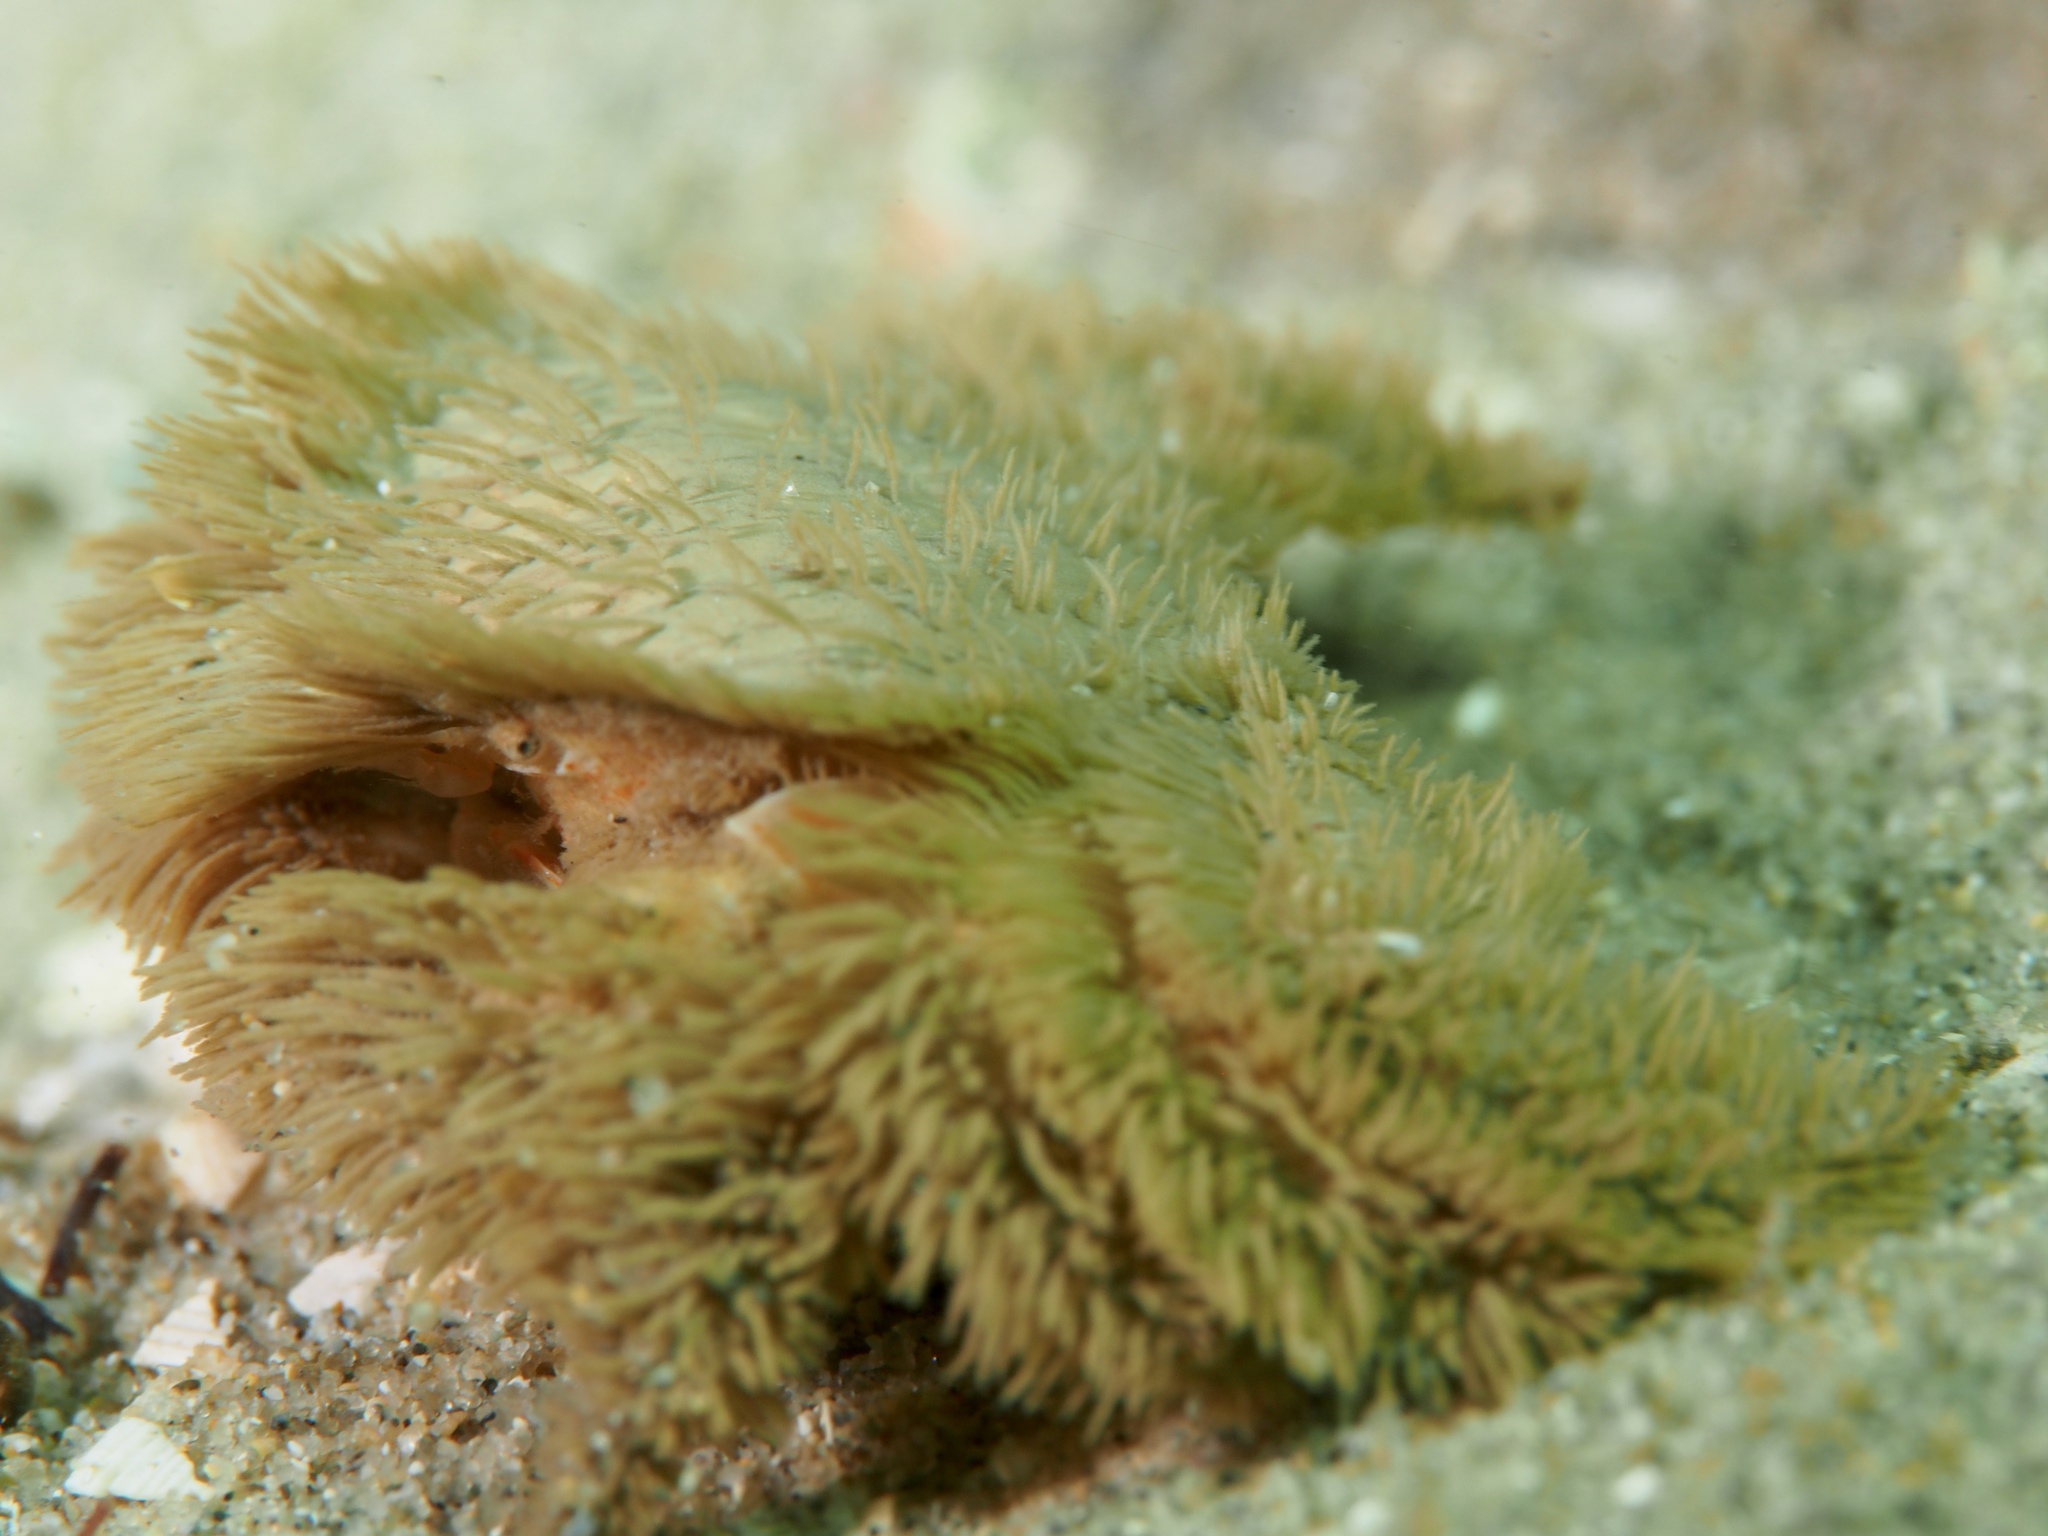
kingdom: Animalia
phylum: Arthropoda
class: Malacostraca
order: Decapoda
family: Pilumnidae
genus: Heteropilumnus
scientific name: Heteropilumnus fimbriatus
